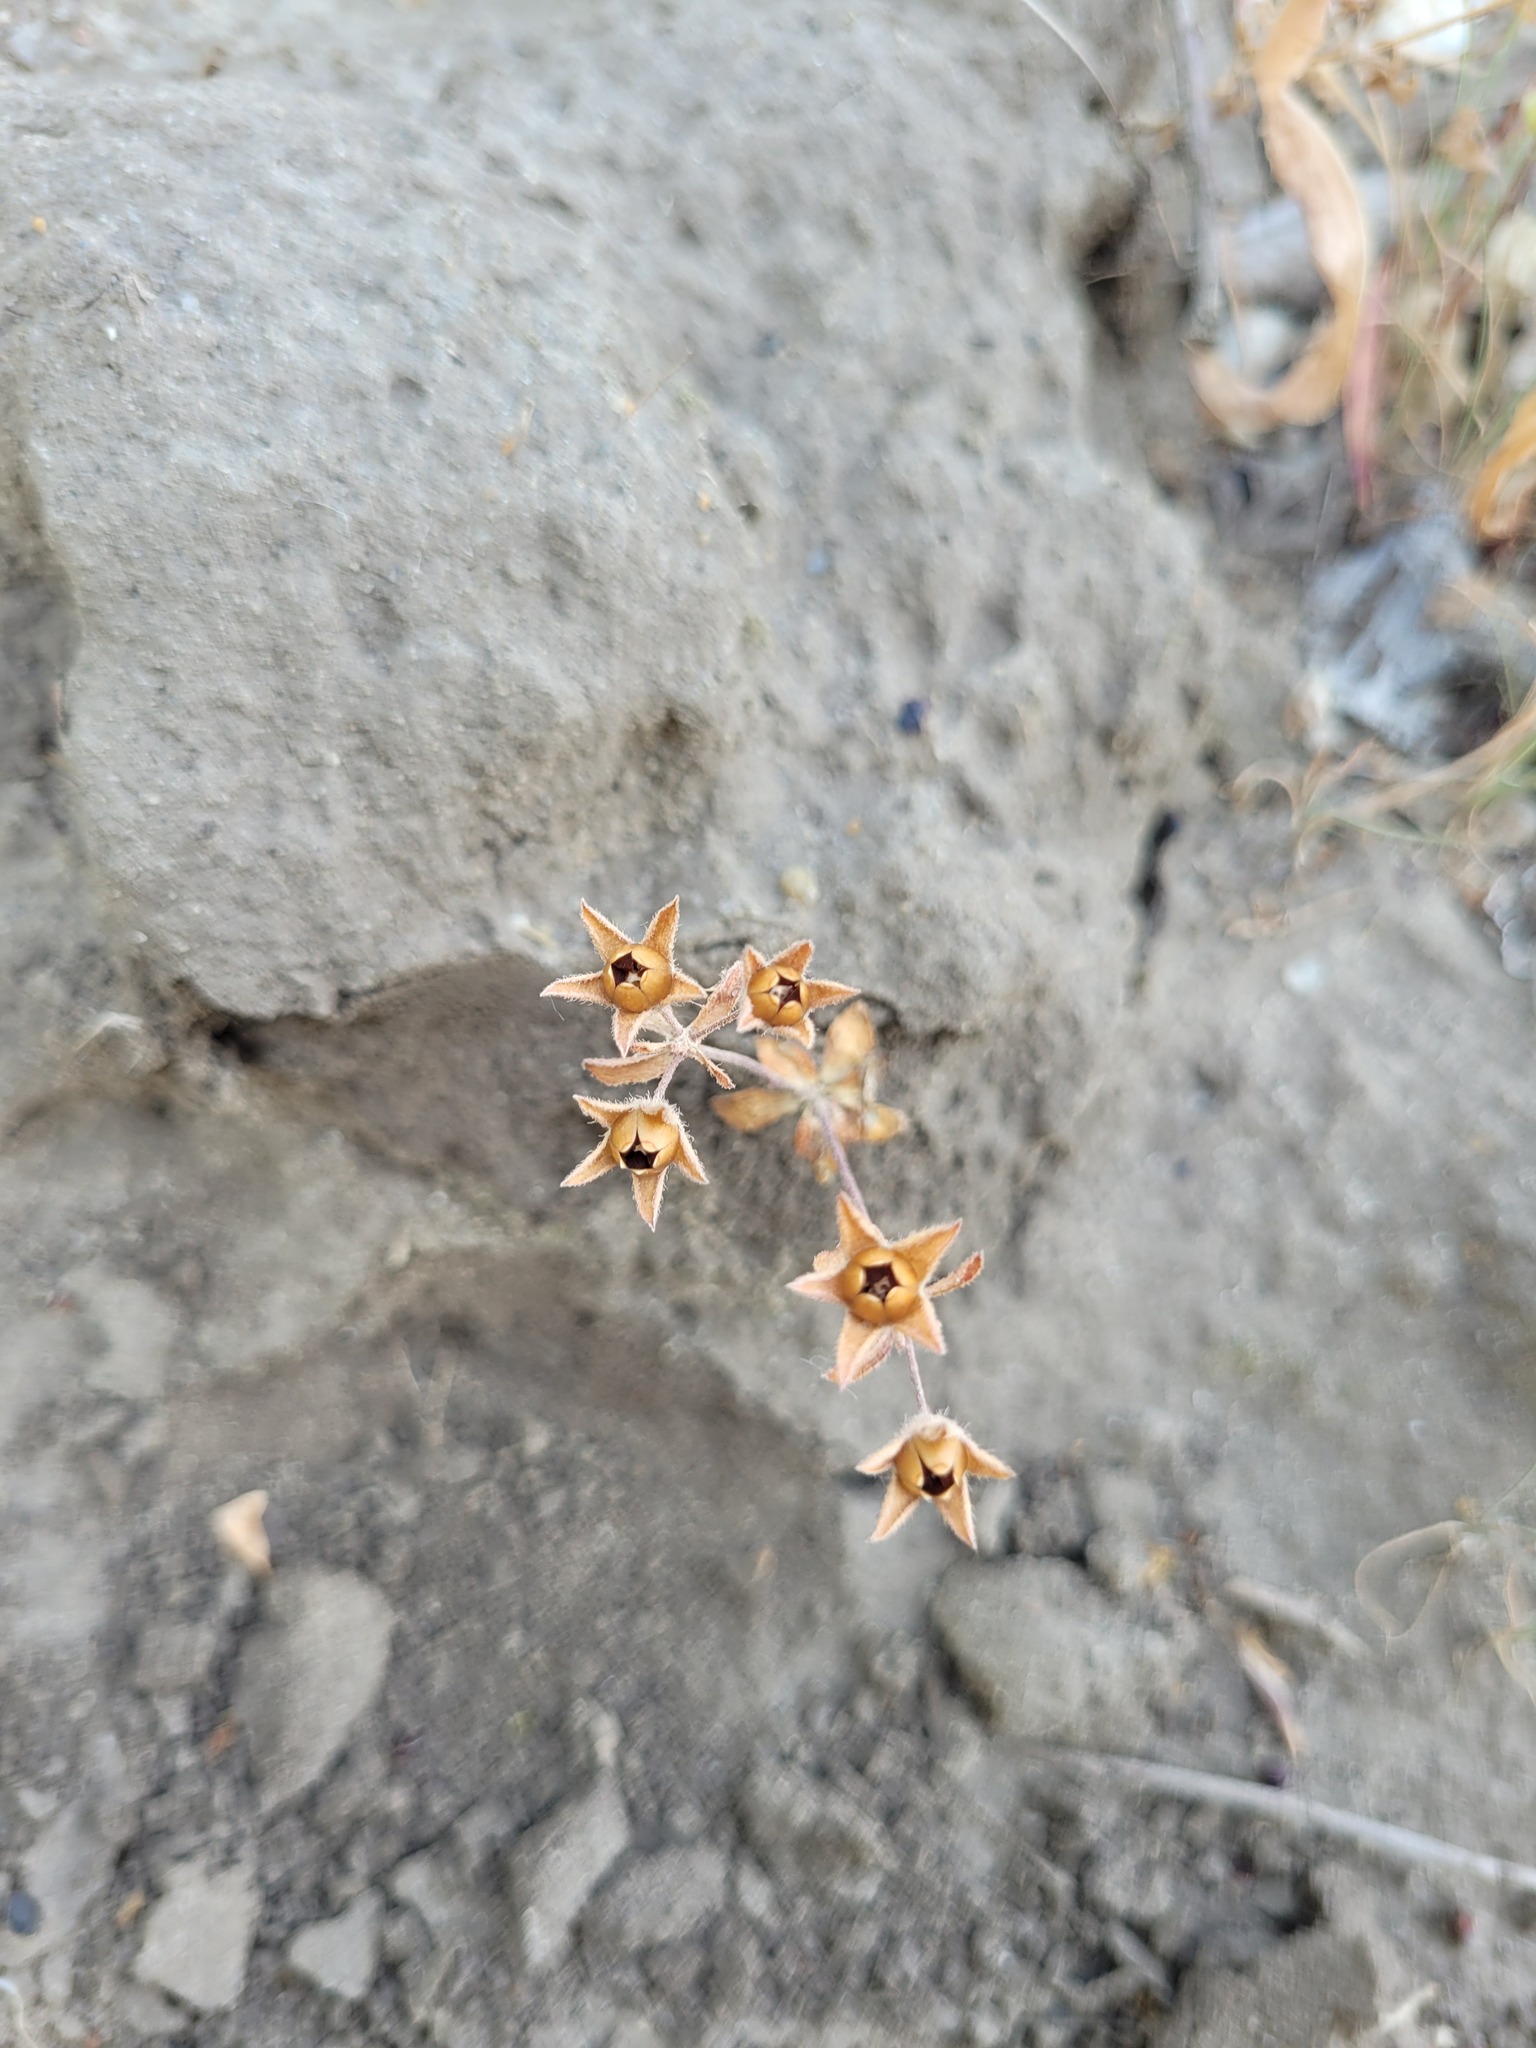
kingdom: Plantae
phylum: Tracheophyta
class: Magnoliopsida
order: Ericales
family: Primulaceae
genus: Androsace
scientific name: Androsace maxima
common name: Annual androsace
